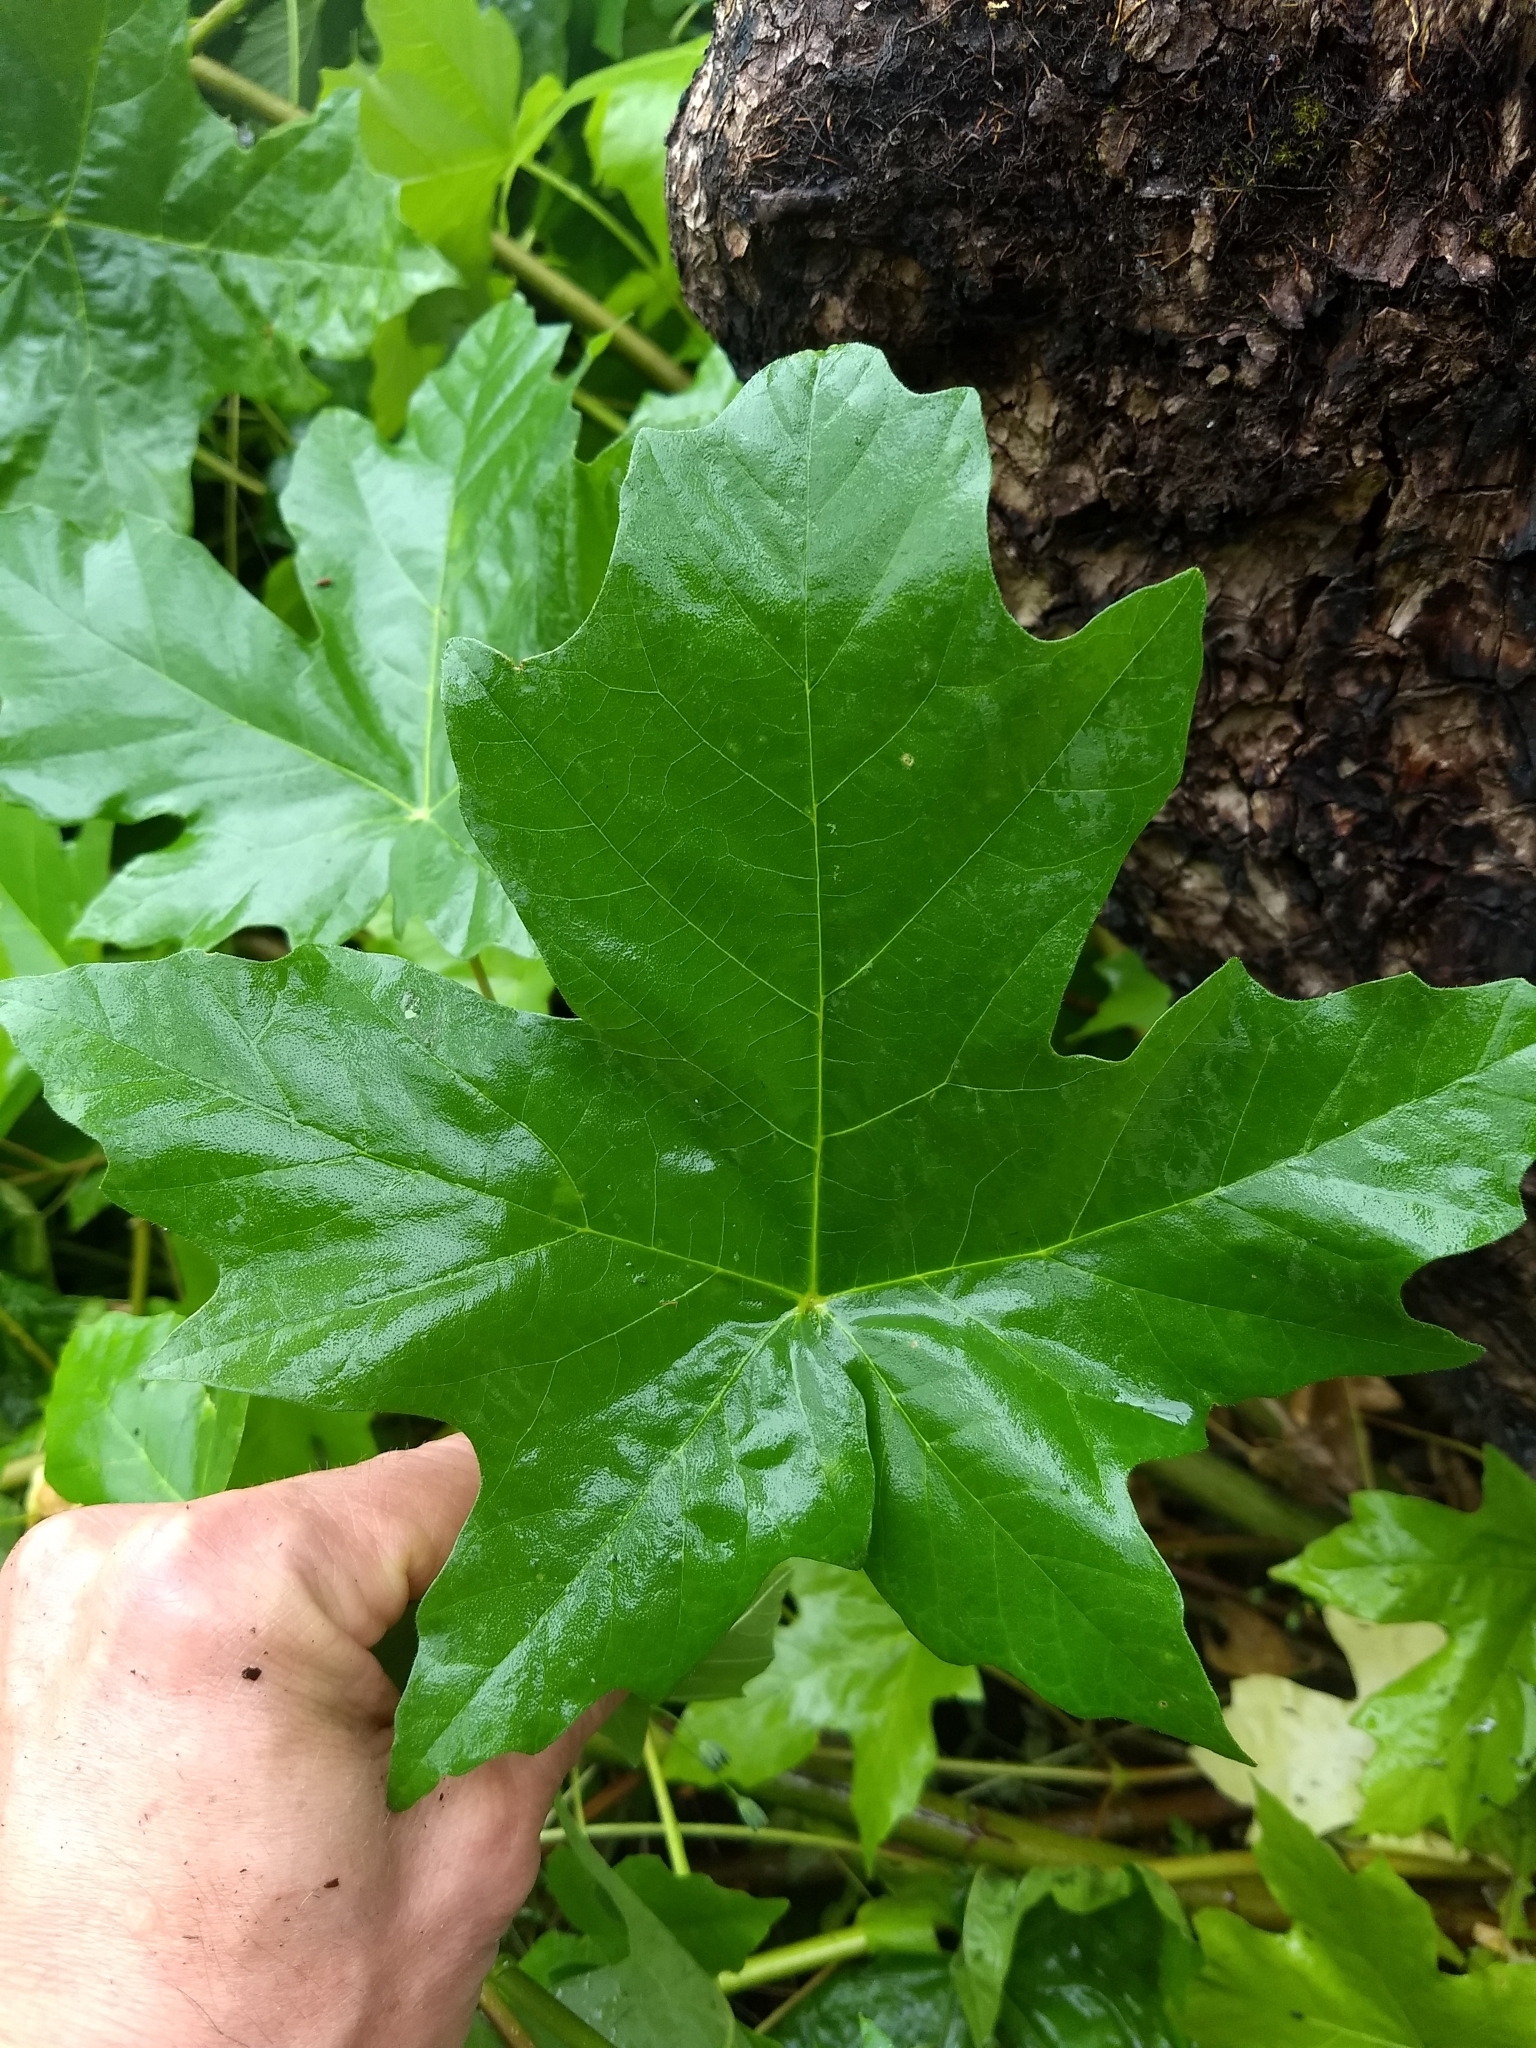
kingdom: Plantae
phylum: Tracheophyta
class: Magnoliopsida
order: Sapindales
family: Sapindaceae
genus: Acer
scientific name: Acer macrophyllum
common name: Oregon maple
